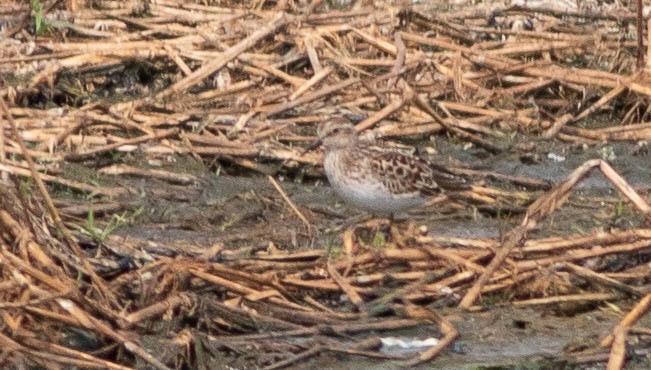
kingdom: Animalia
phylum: Chordata
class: Aves
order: Charadriiformes
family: Scolopacidae
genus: Calidris
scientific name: Calidris minutilla
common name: Least sandpiper
